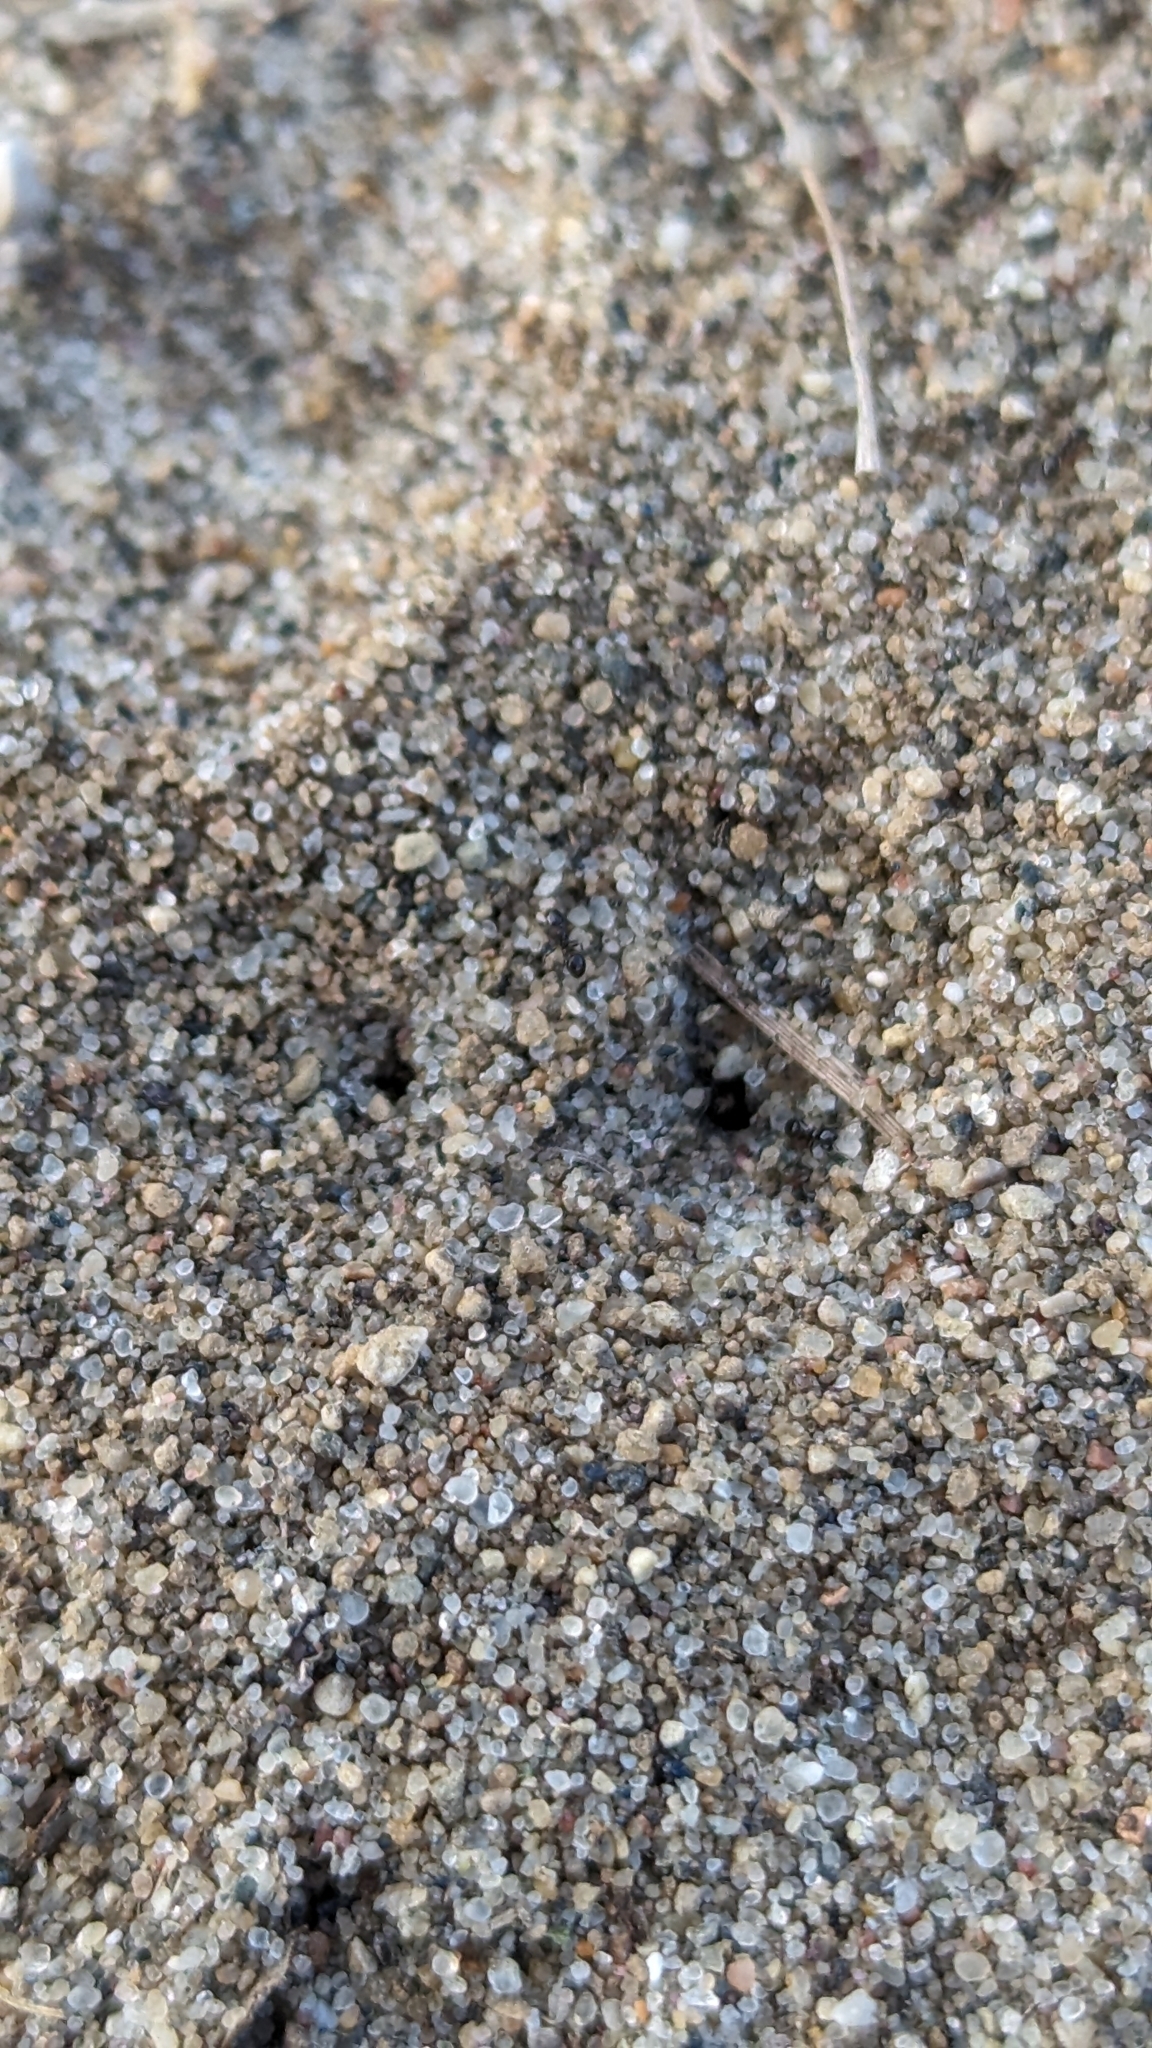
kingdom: Animalia
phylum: Arthropoda
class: Insecta
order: Hymenoptera
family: Formicidae
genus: Monomorium
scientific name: Monomorium minimum
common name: Little black ant
